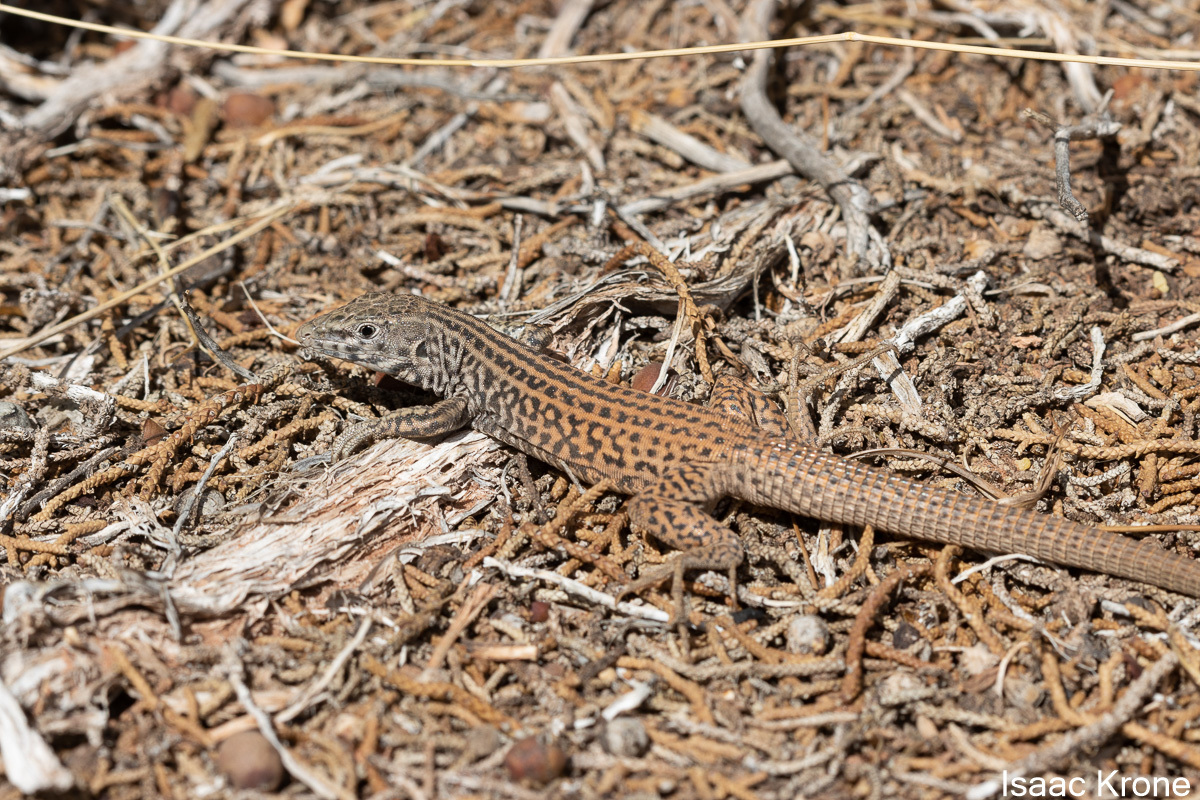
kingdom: Animalia
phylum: Chordata
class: Squamata
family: Teiidae
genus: Aspidoscelis
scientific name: Aspidoscelis tigris
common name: Tiger whiptail
